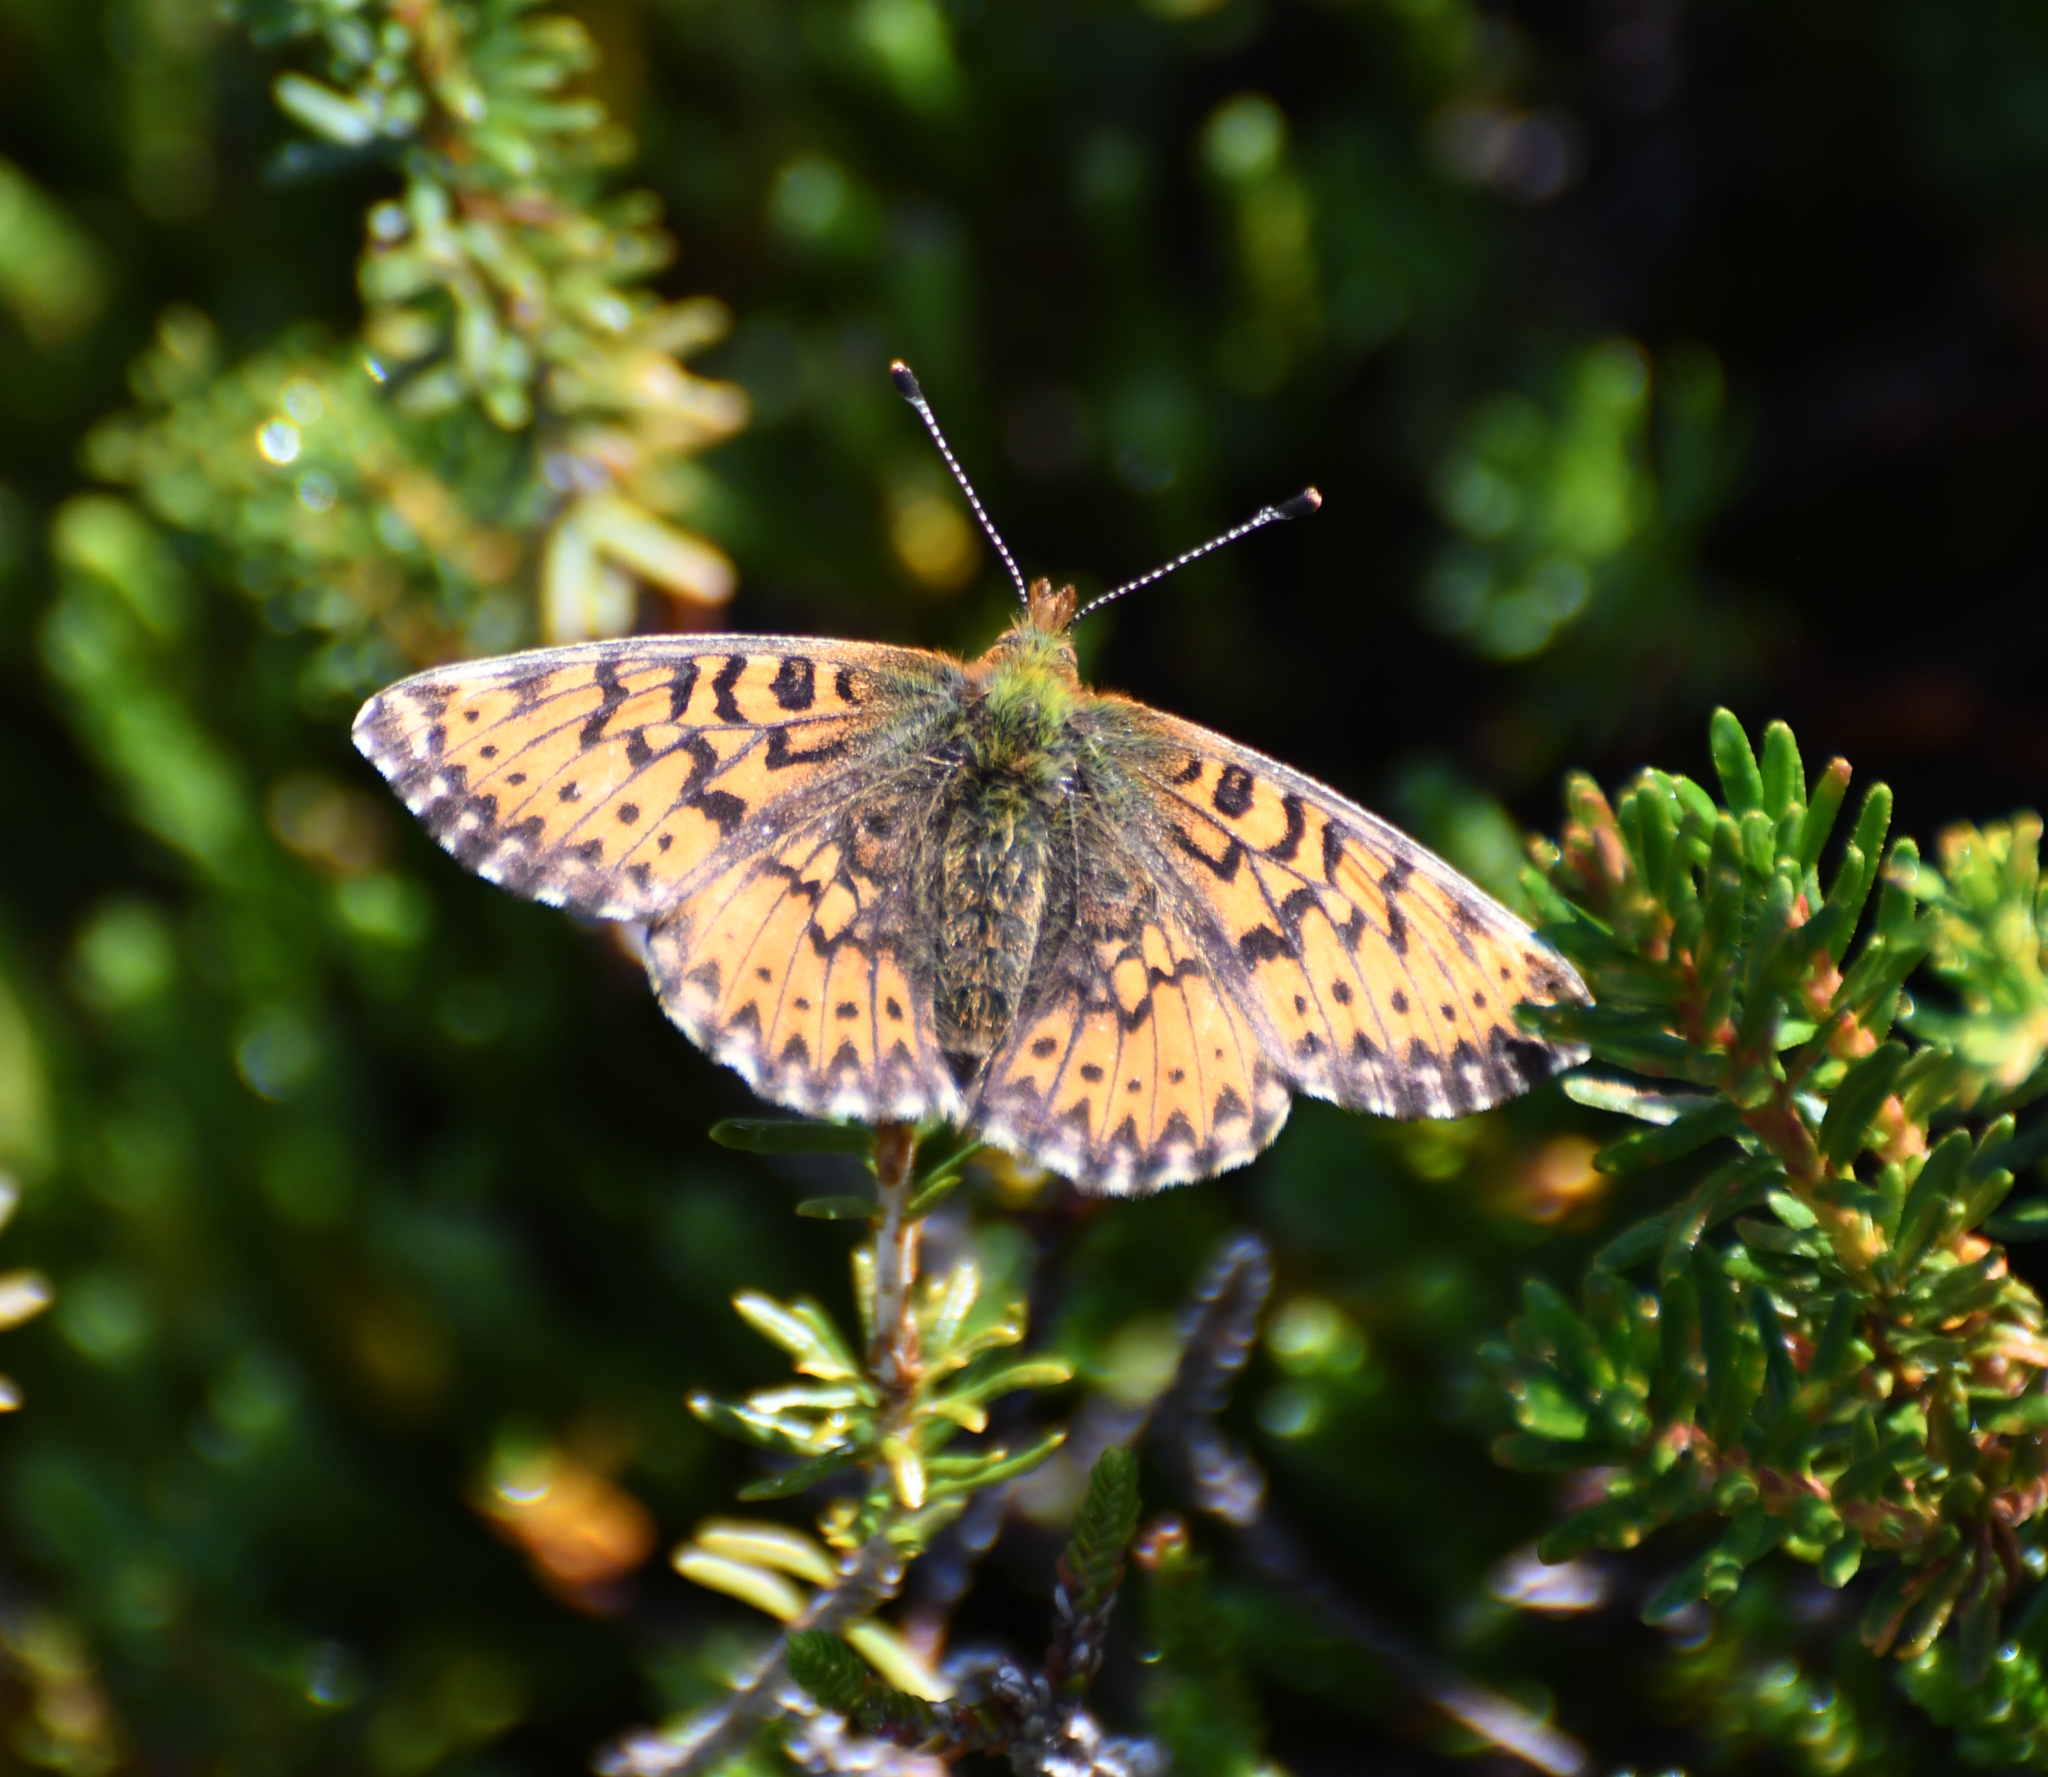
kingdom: Animalia
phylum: Arthropoda
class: Insecta
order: Lepidoptera
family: Nymphalidae
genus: Boloria
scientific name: Boloria chariclea
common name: Arctic fritillary
